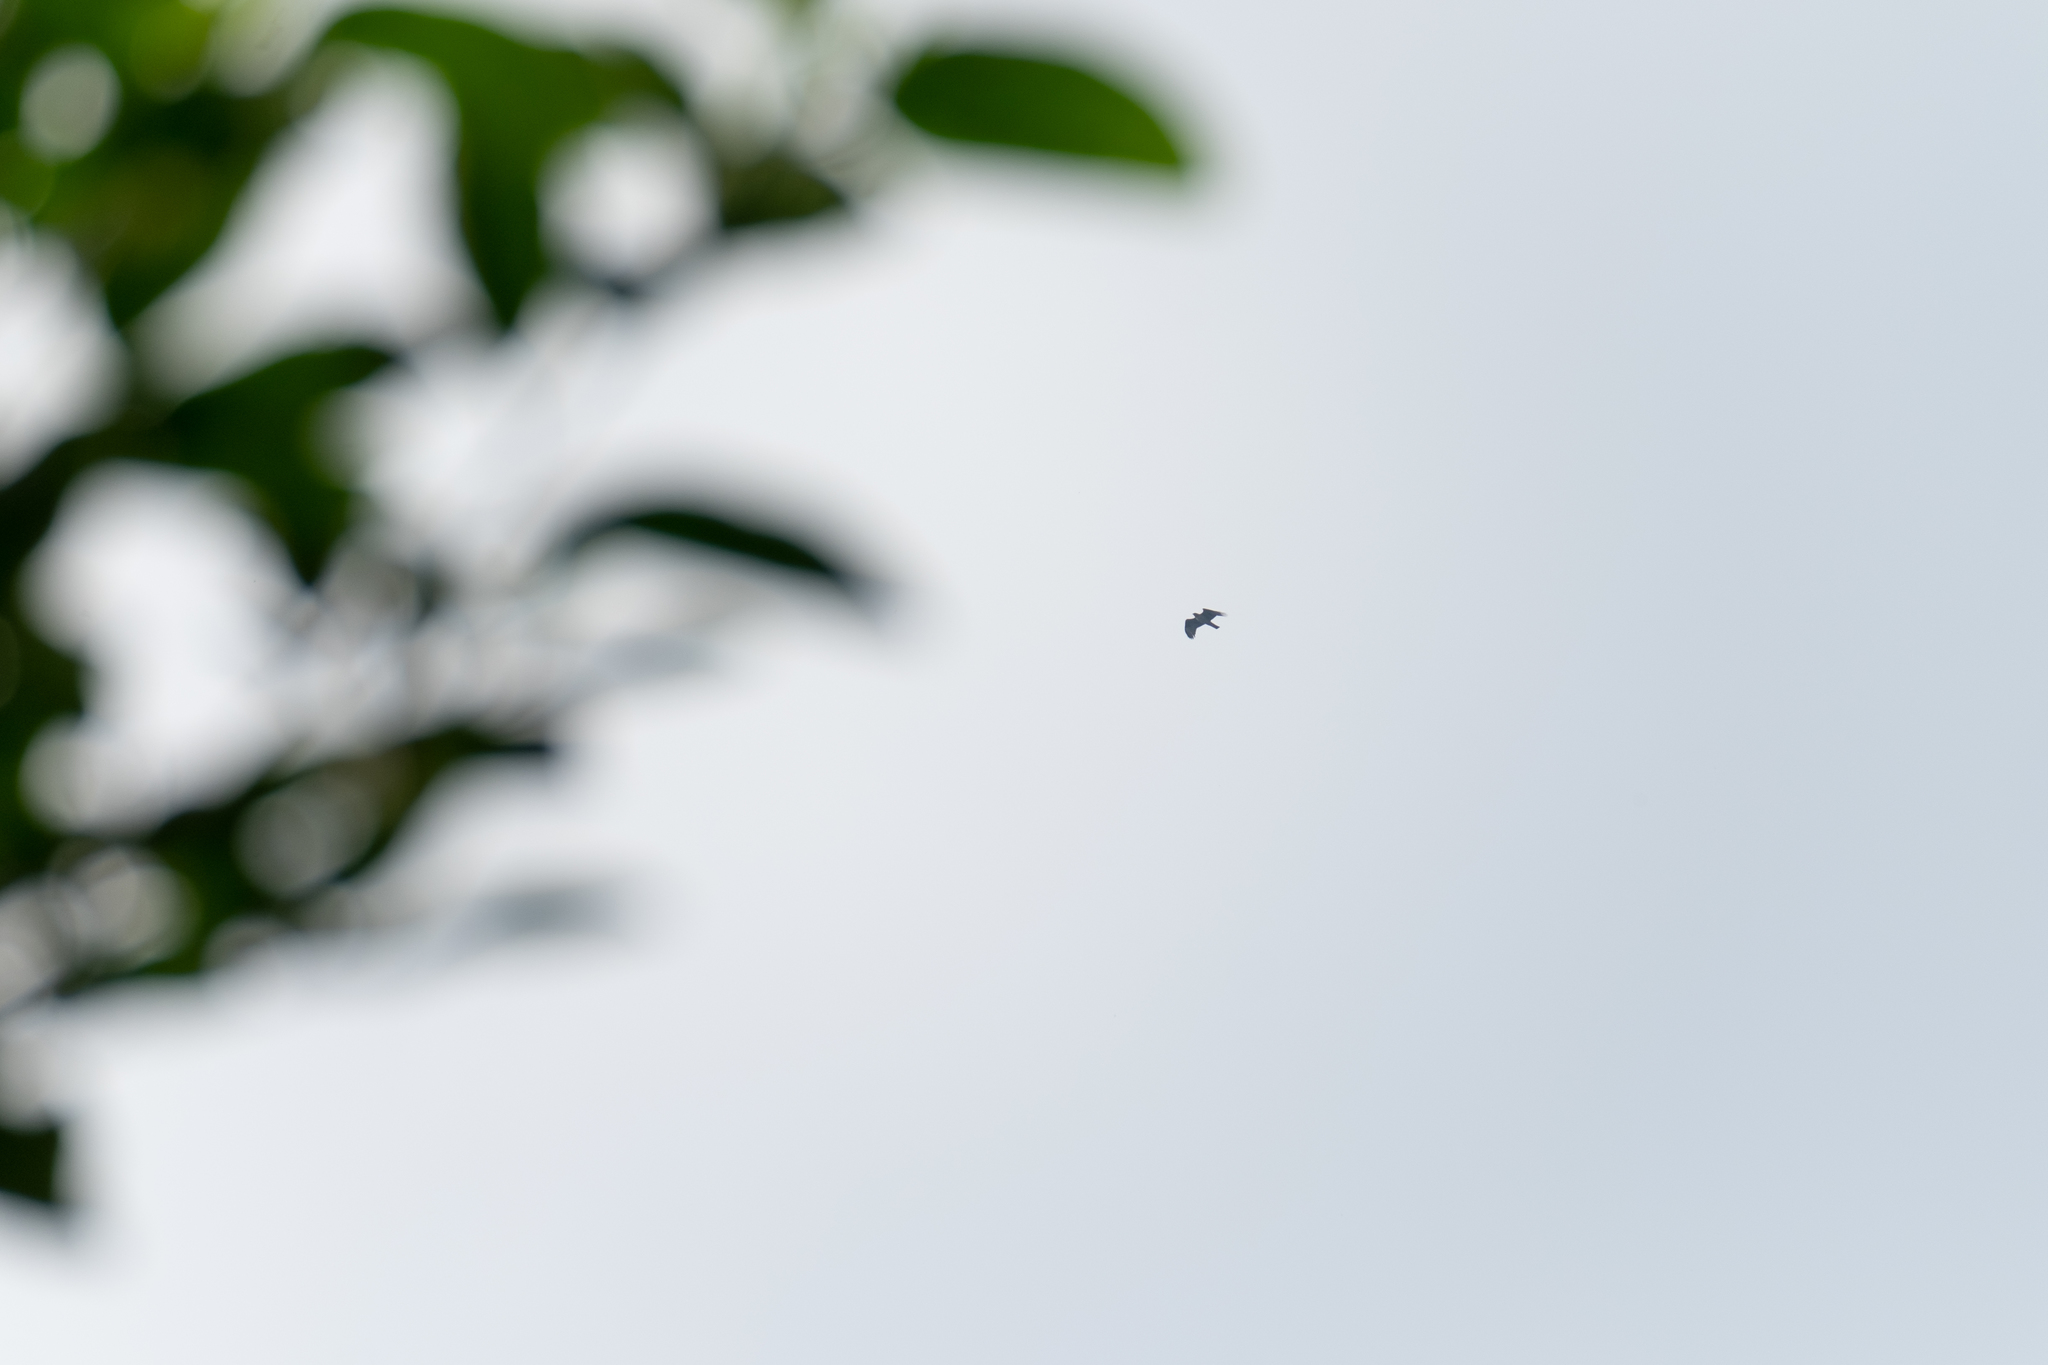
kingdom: Animalia
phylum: Chordata
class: Aves
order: Accipitriformes
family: Accipitridae
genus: Aquila
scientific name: Aquila fasciata
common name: Bonelli's eagle
